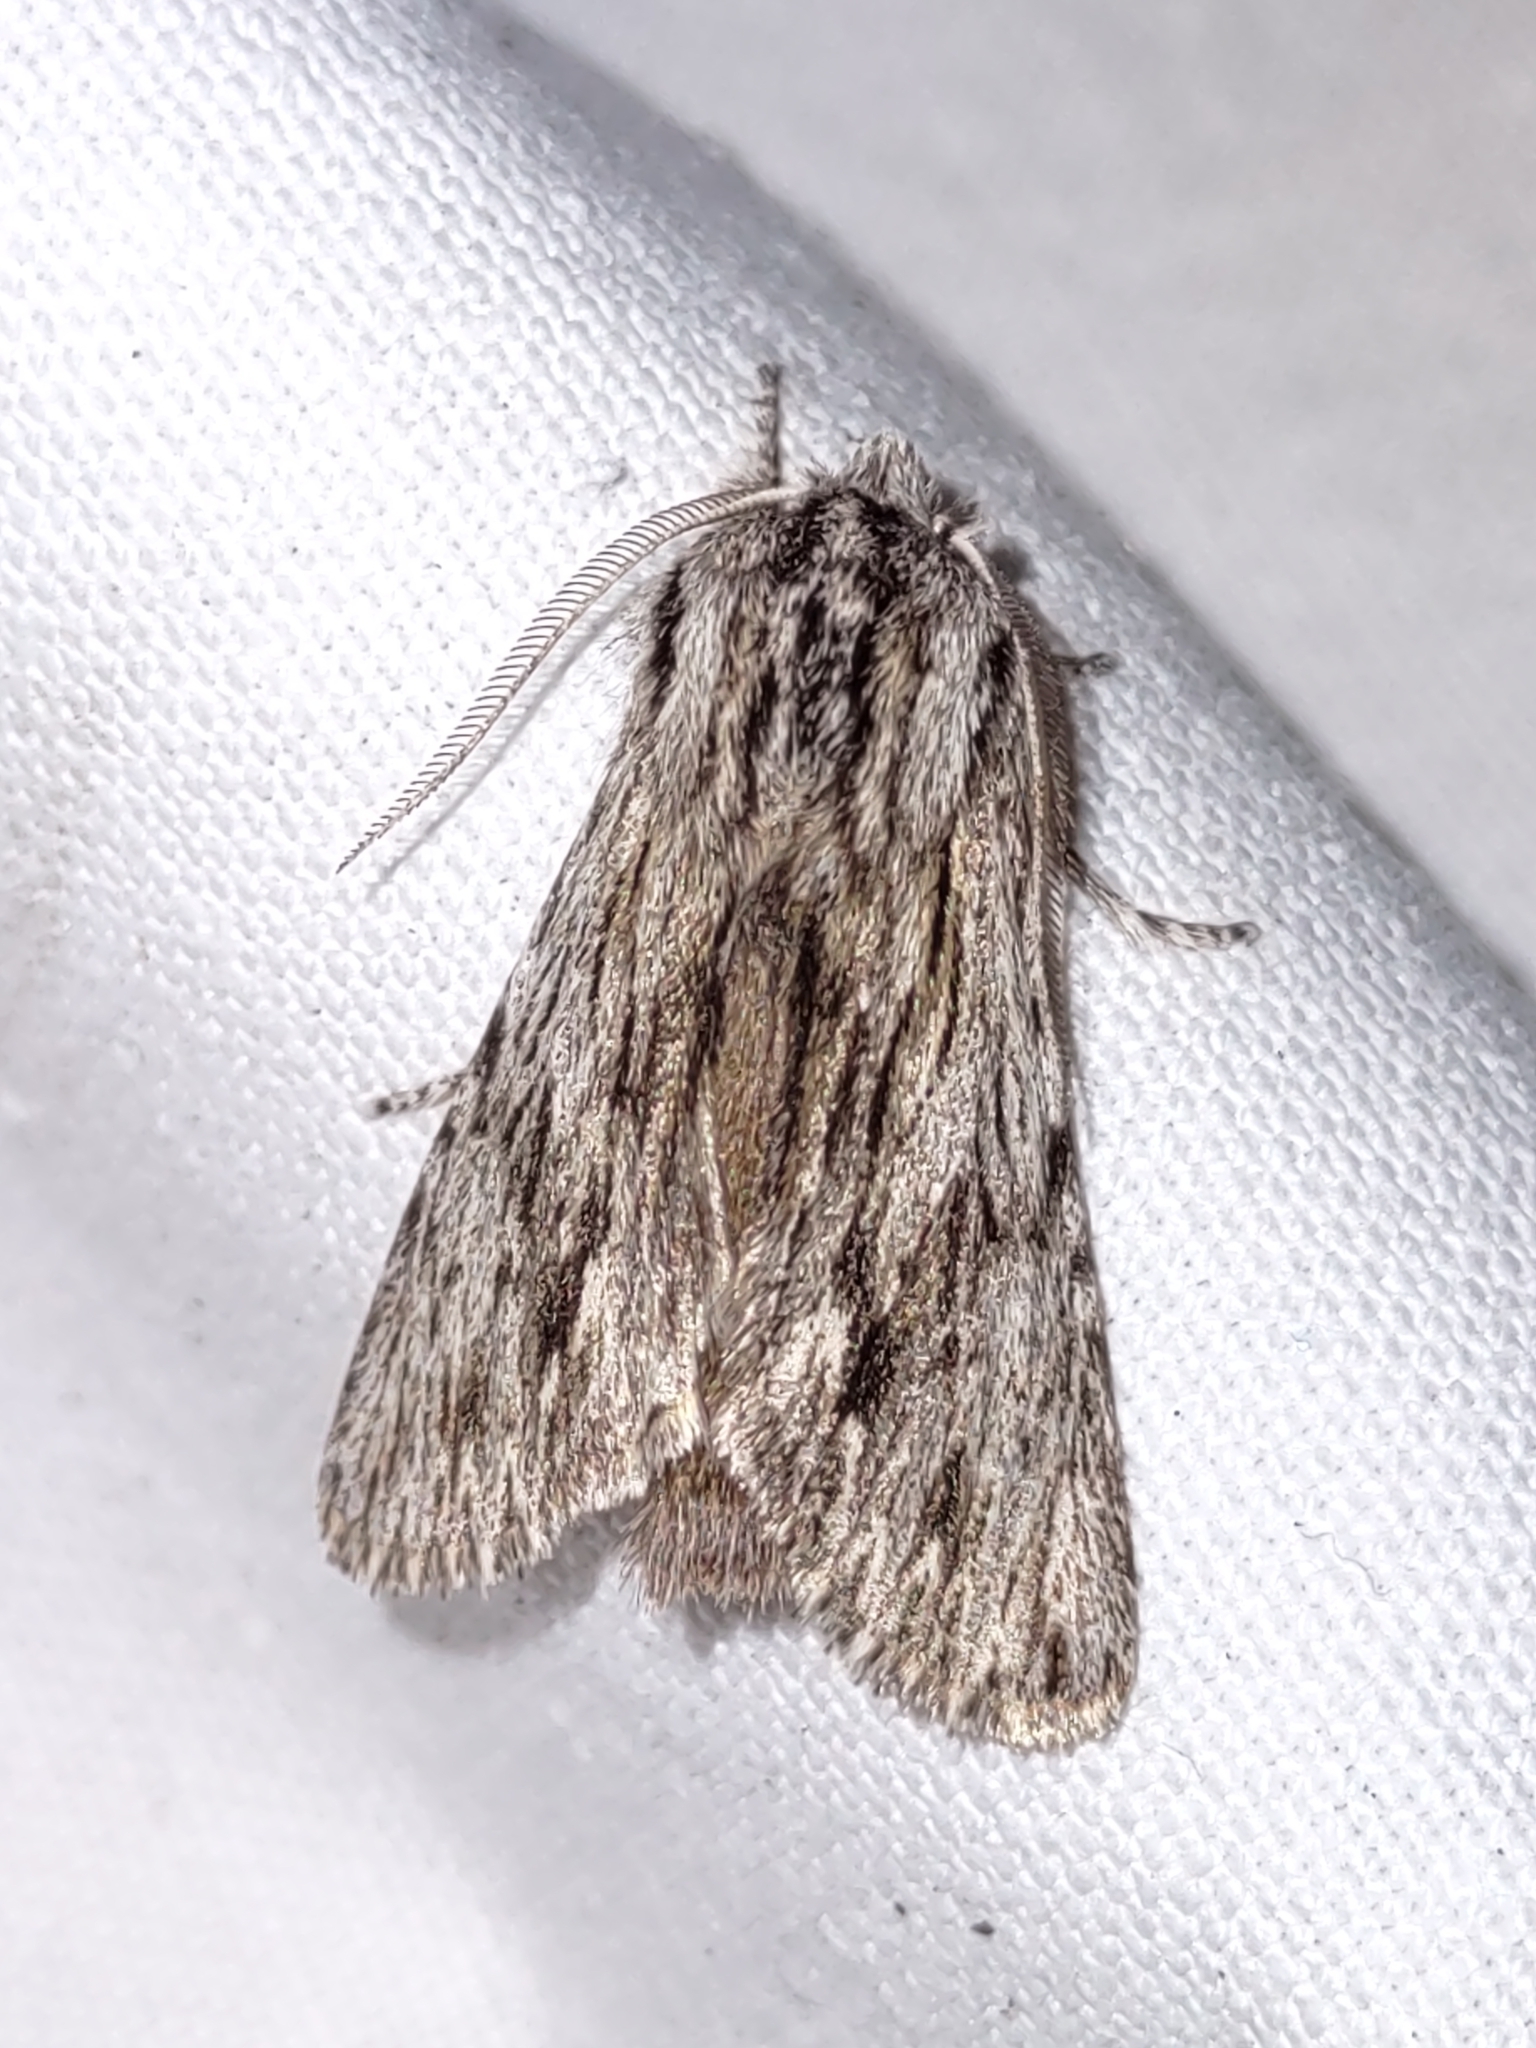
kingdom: Animalia
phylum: Arthropoda
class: Insecta
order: Lepidoptera
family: Noctuidae
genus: Asteroscopus
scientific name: Asteroscopus sphinx
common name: The sprawler
